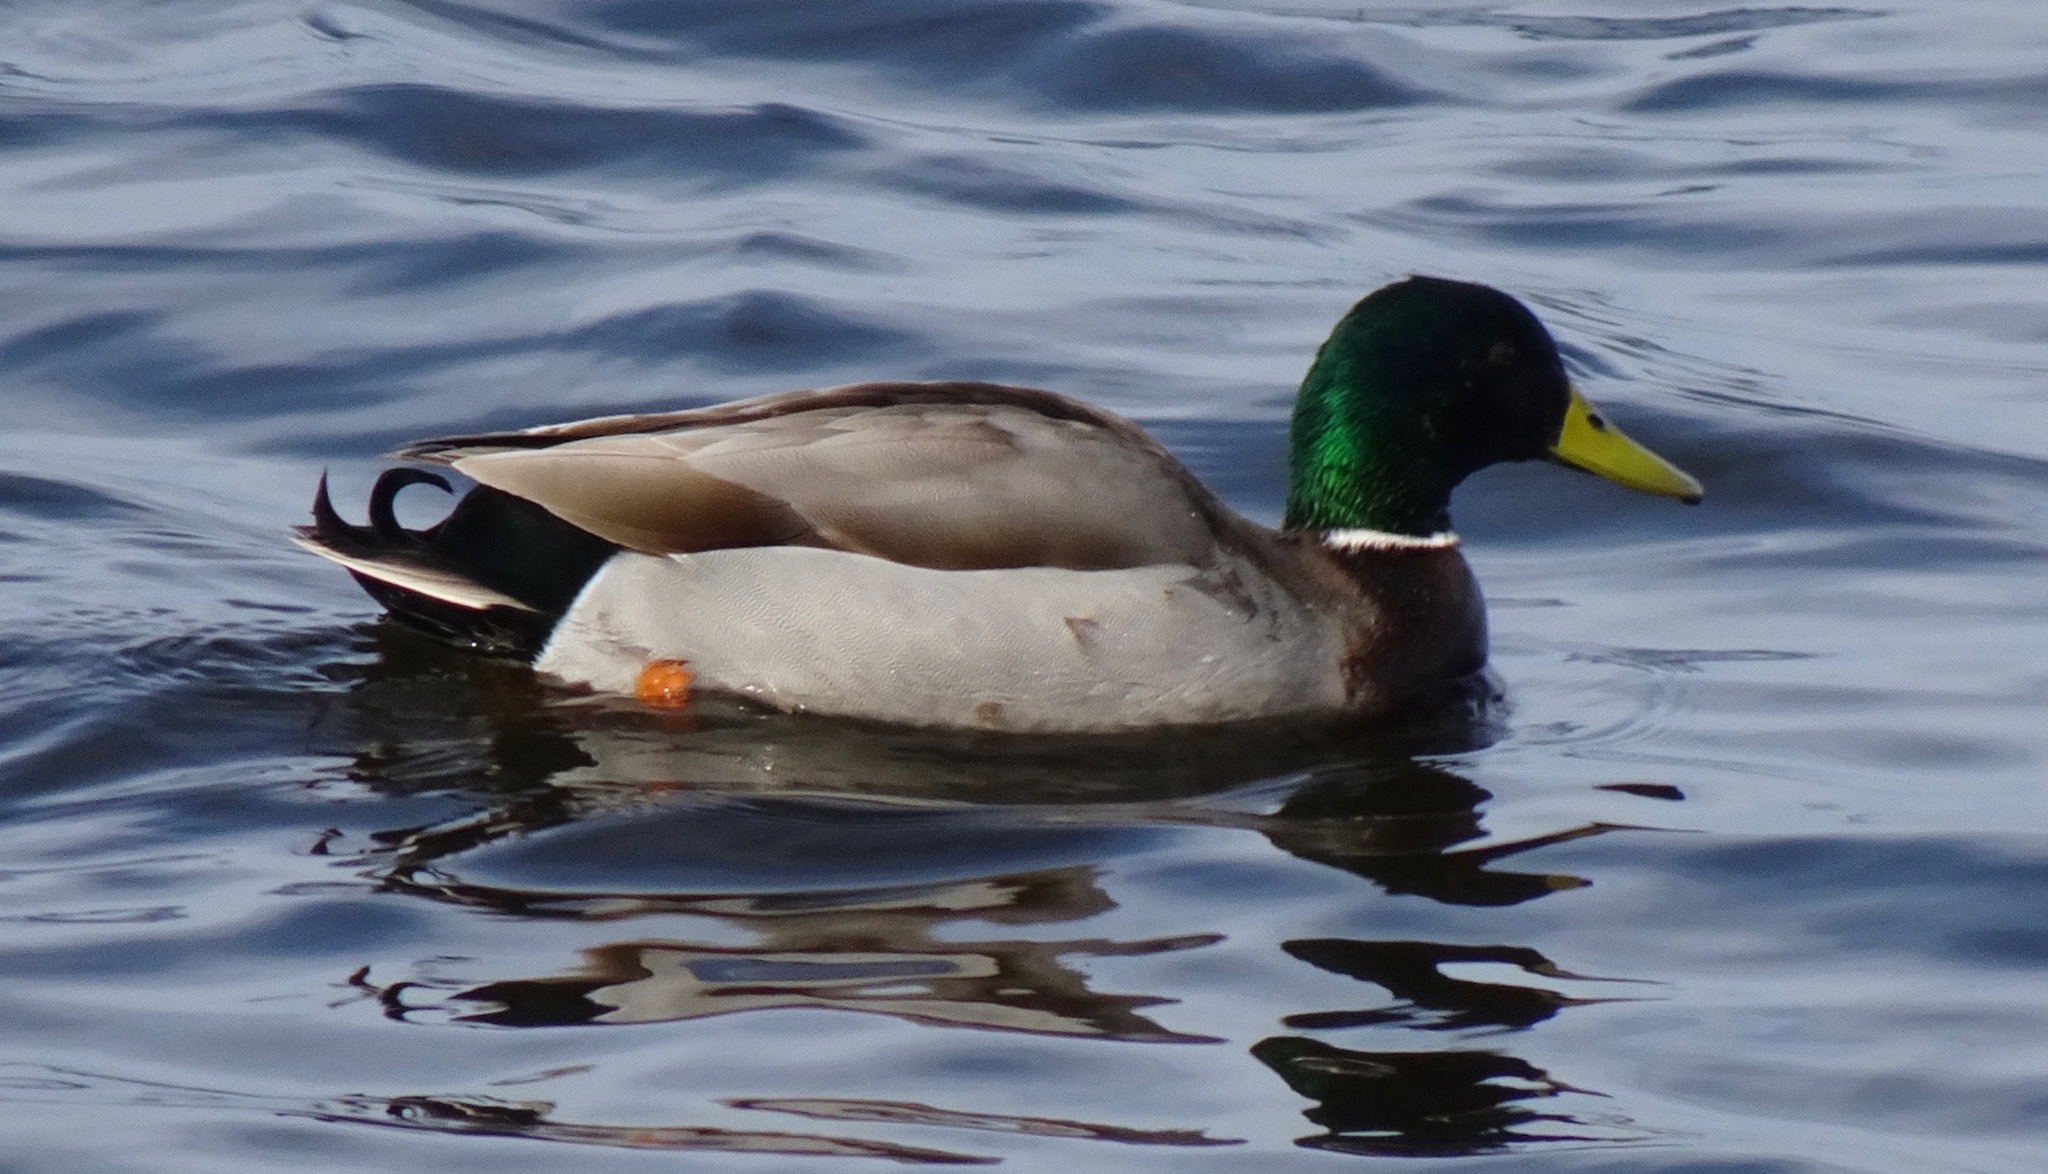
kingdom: Animalia
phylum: Chordata
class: Aves
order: Anseriformes
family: Anatidae
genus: Anas
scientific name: Anas platyrhynchos
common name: Mallard
